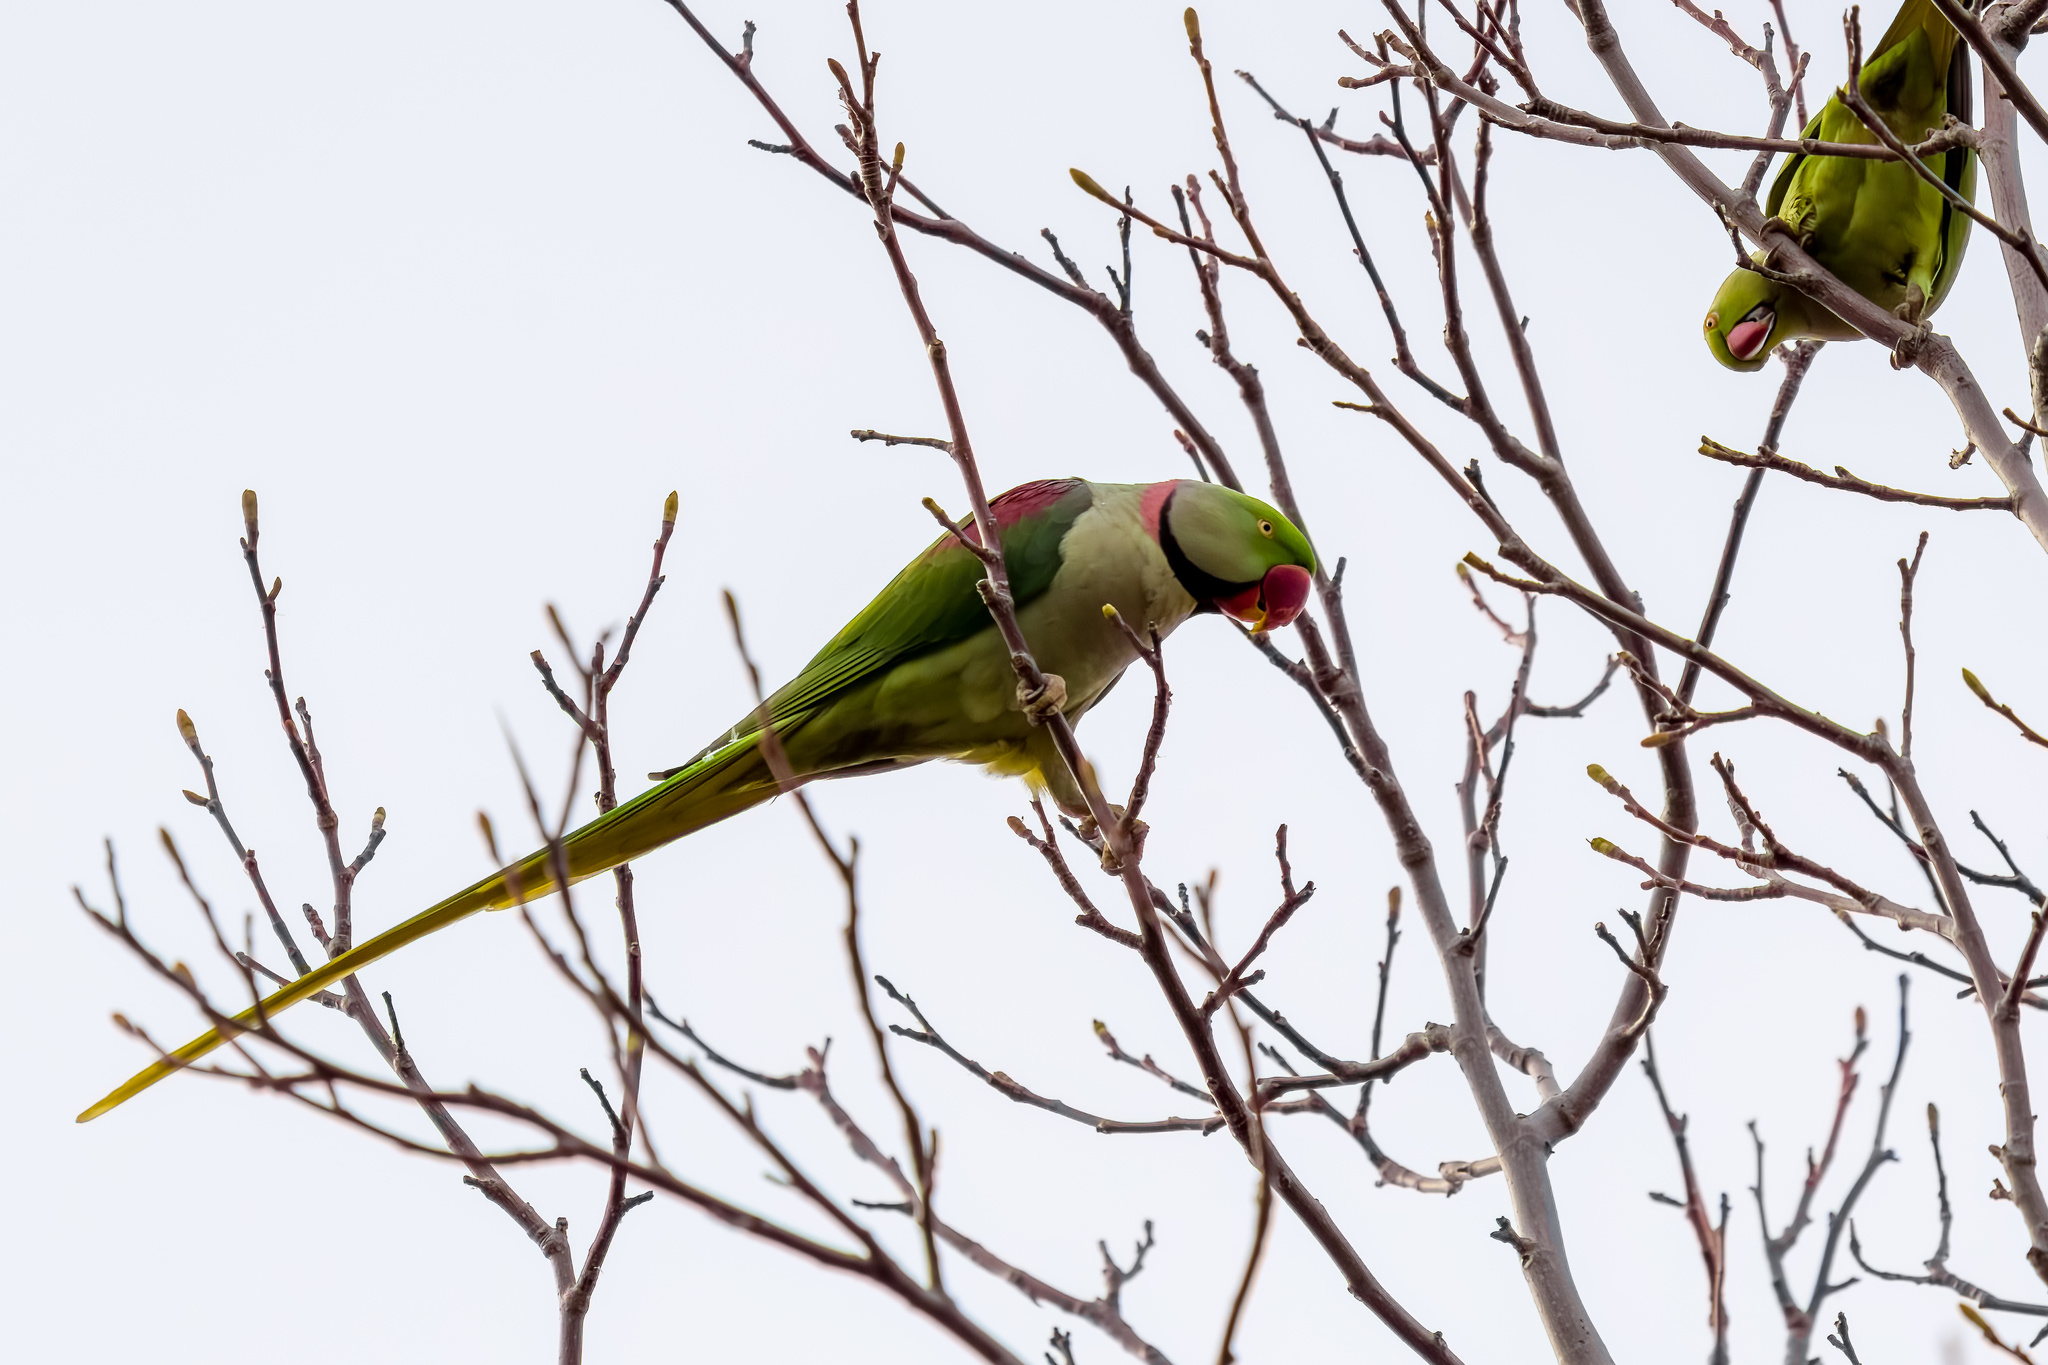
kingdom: Animalia
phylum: Chordata
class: Aves
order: Psittaciformes
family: Psittacidae
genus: Psittacula
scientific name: Psittacula eupatria
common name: Alexandrine parakeet
